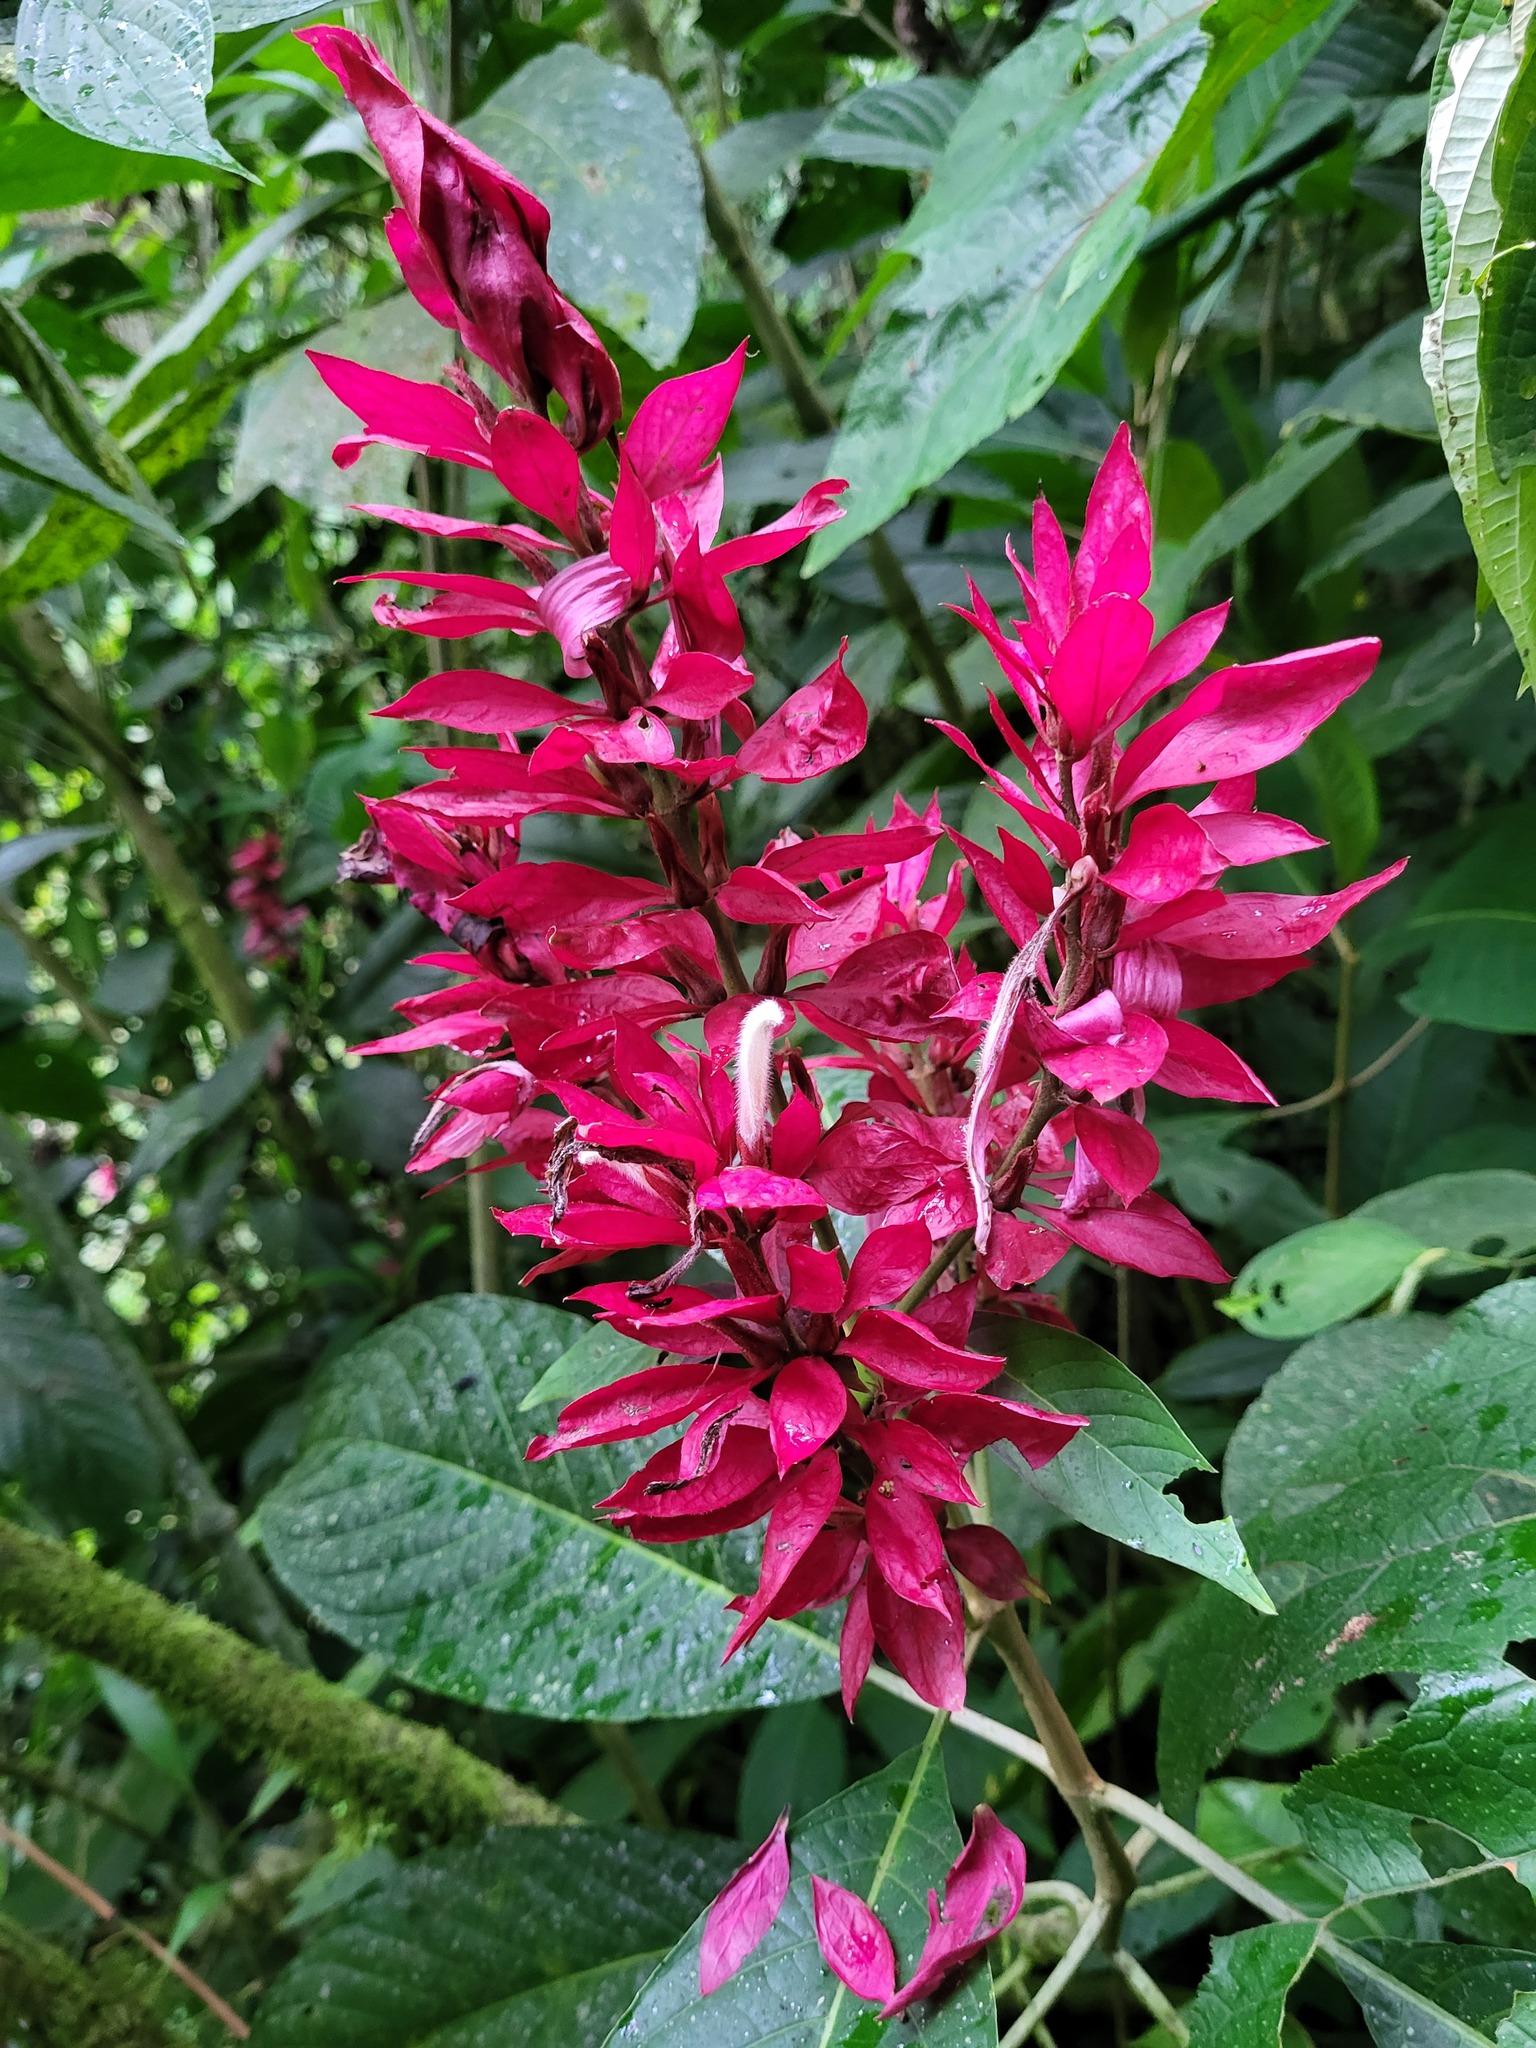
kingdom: Plantae
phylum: Tracheophyta
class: Magnoliopsida
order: Lamiales
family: Acanthaceae
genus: Megaskepasma
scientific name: Megaskepasma erythrochlamys
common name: Brazilian red-cloak
